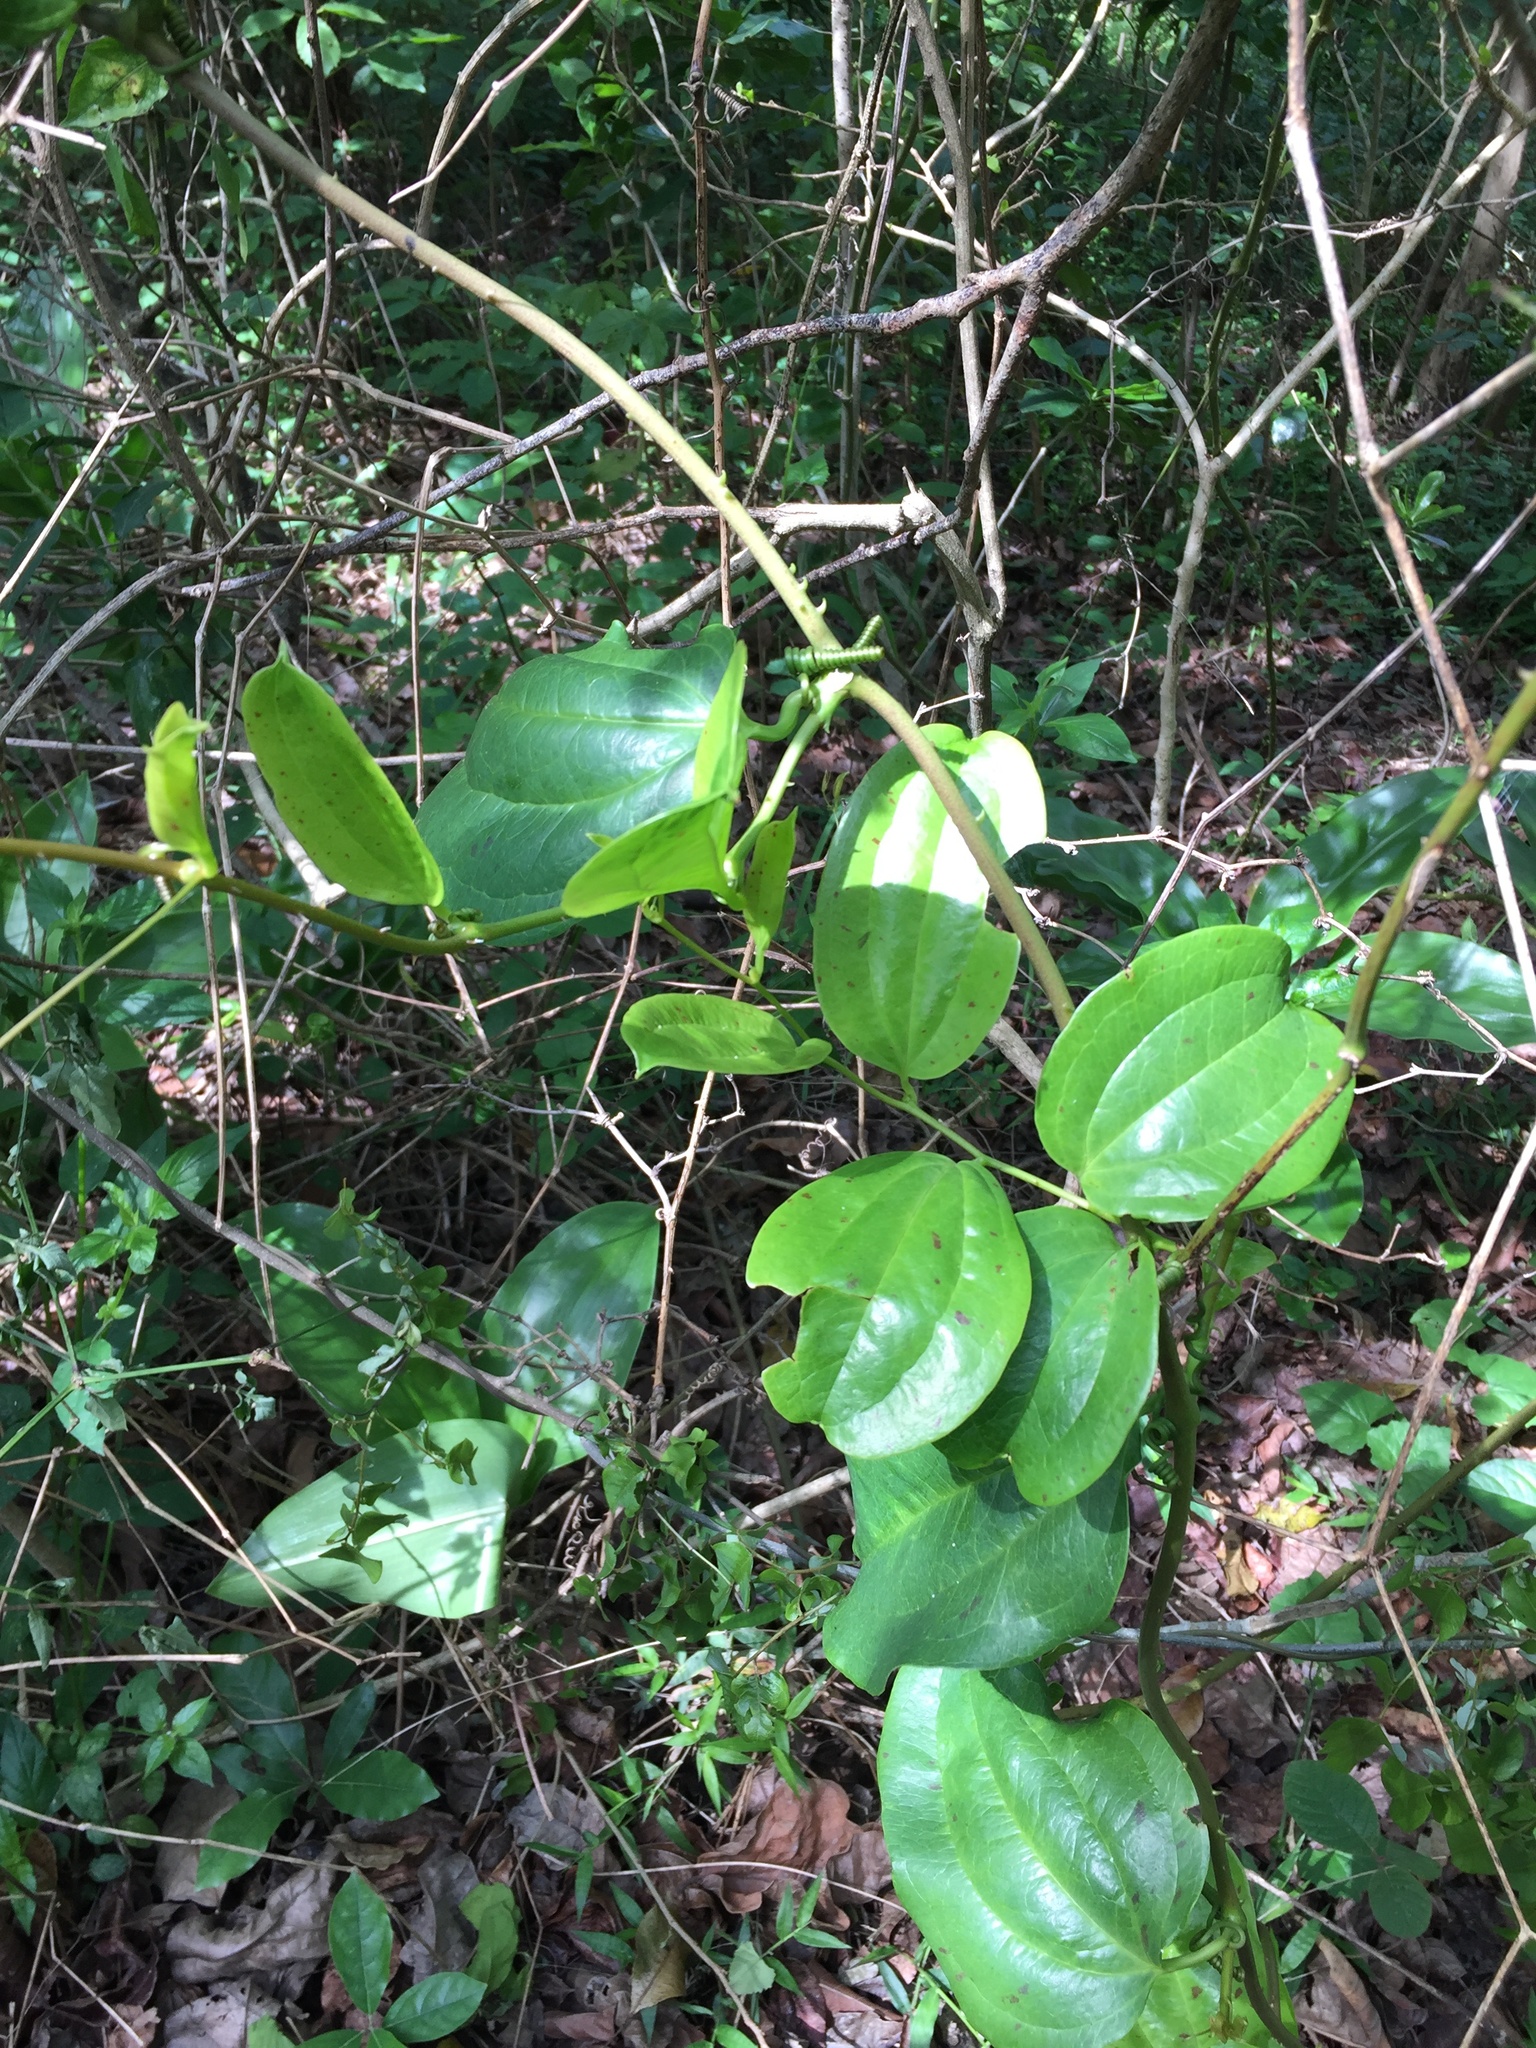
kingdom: Plantae
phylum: Tracheophyta
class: Liliopsida
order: Liliales
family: Smilacaceae
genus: Smilax
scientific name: Smilax anceps
